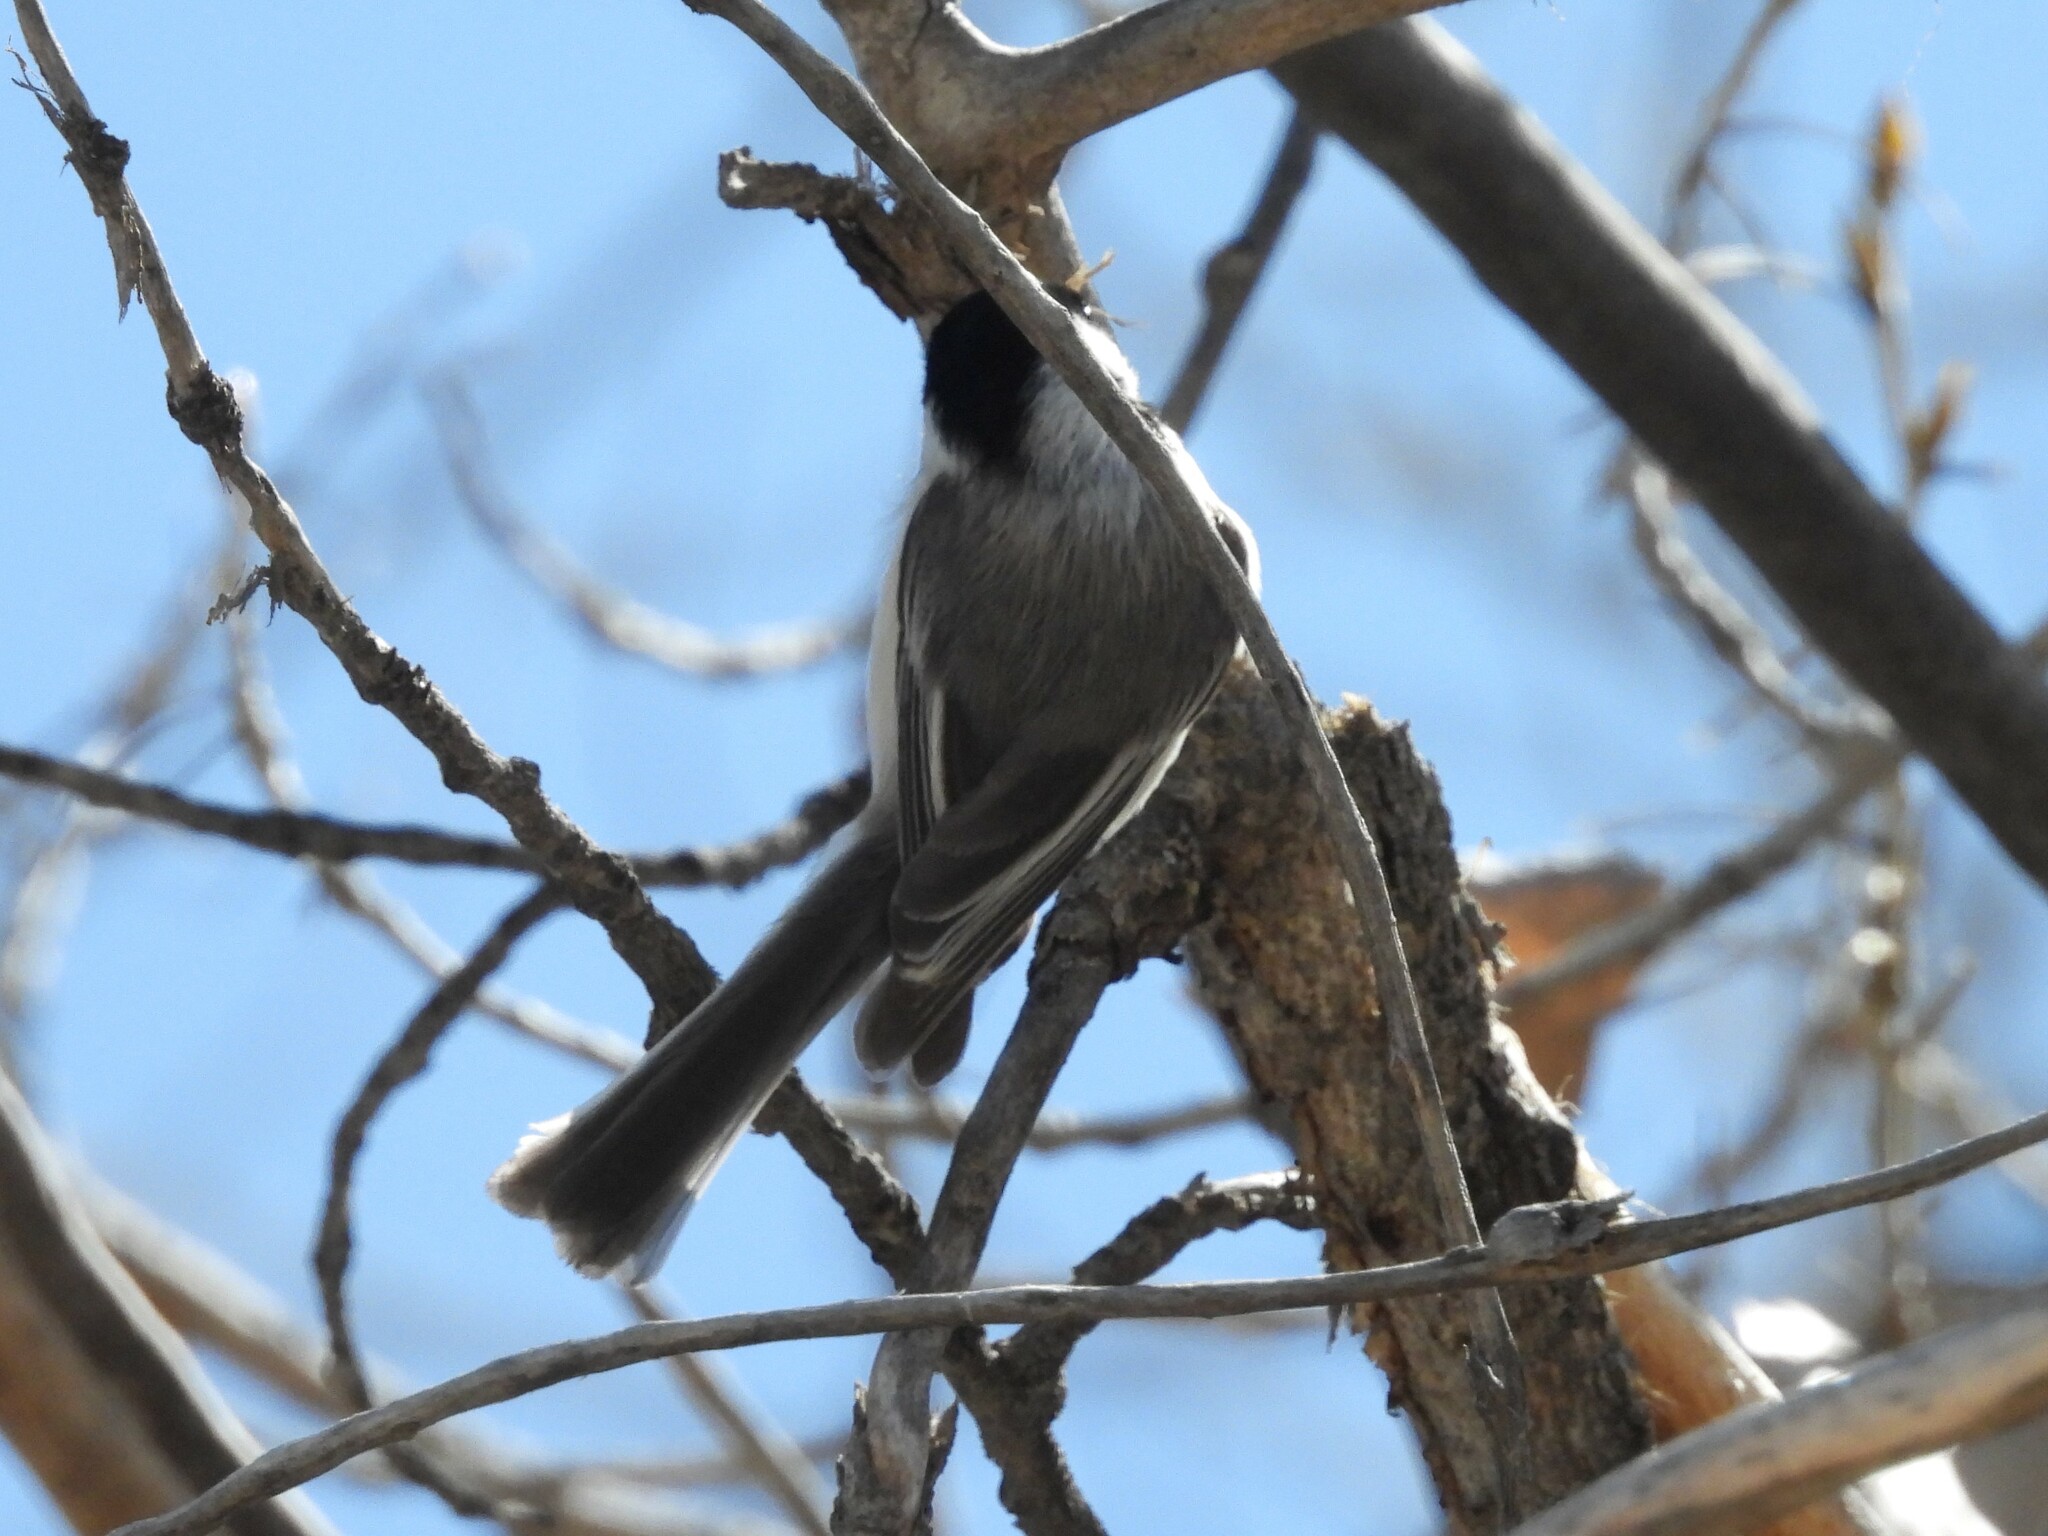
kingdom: Animalia
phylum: Chordata
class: Aves
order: Passeriformes
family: Paridae
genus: Poecile
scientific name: Poecile atricapillus
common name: Black-capped chickadee
